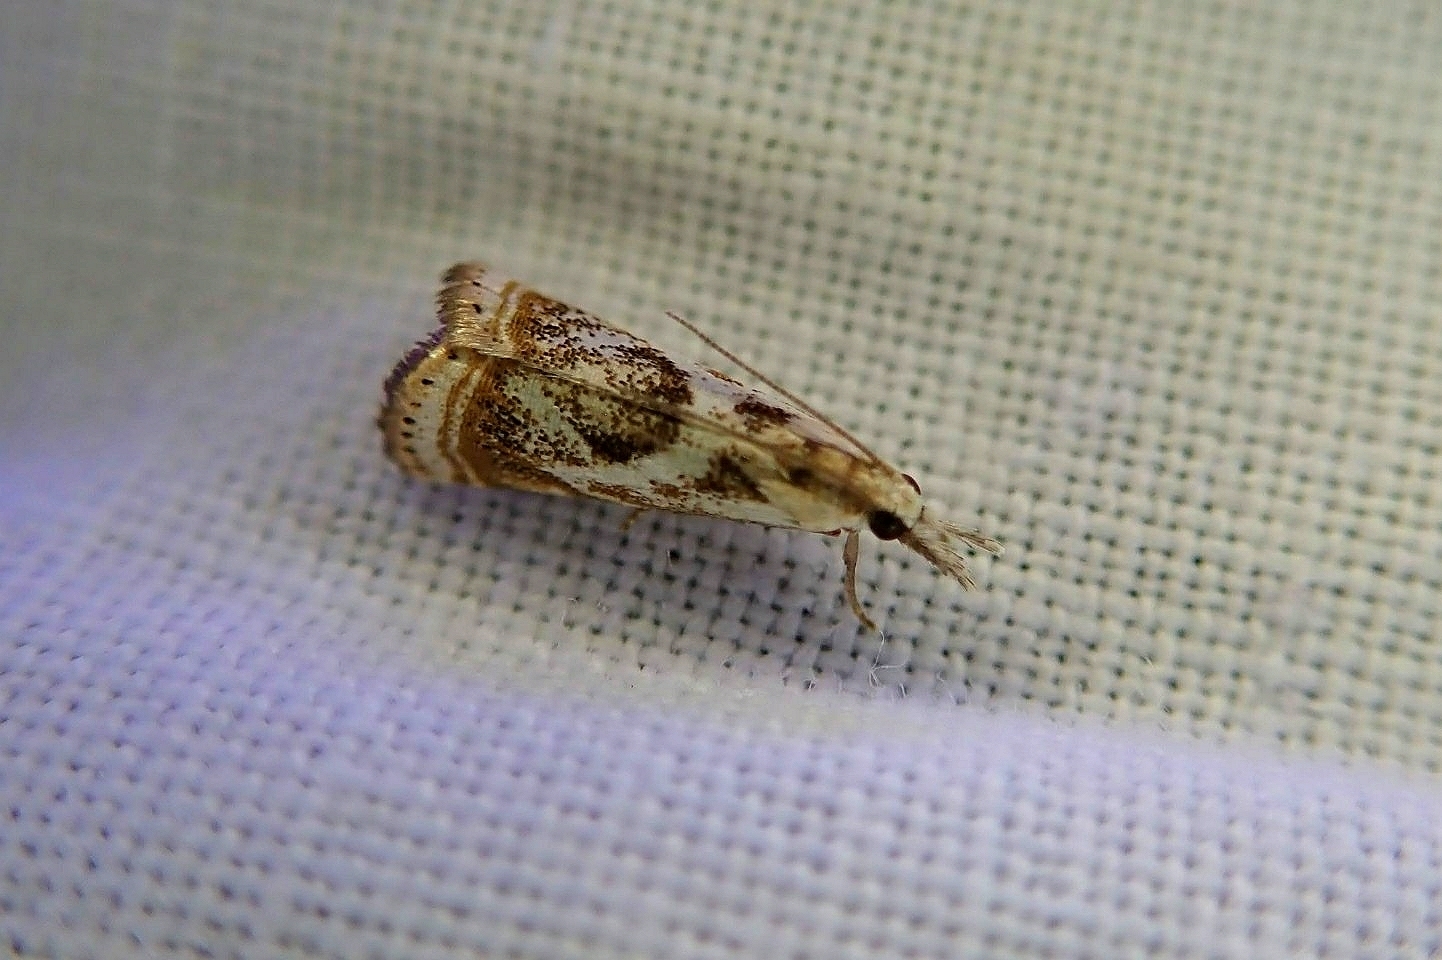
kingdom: Animalia
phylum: Arthropoda
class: Insecta
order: Lepidoptera
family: Crambidae
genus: Microcrambus
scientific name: Microcrambus elegans
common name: Elegant grass-veneer
